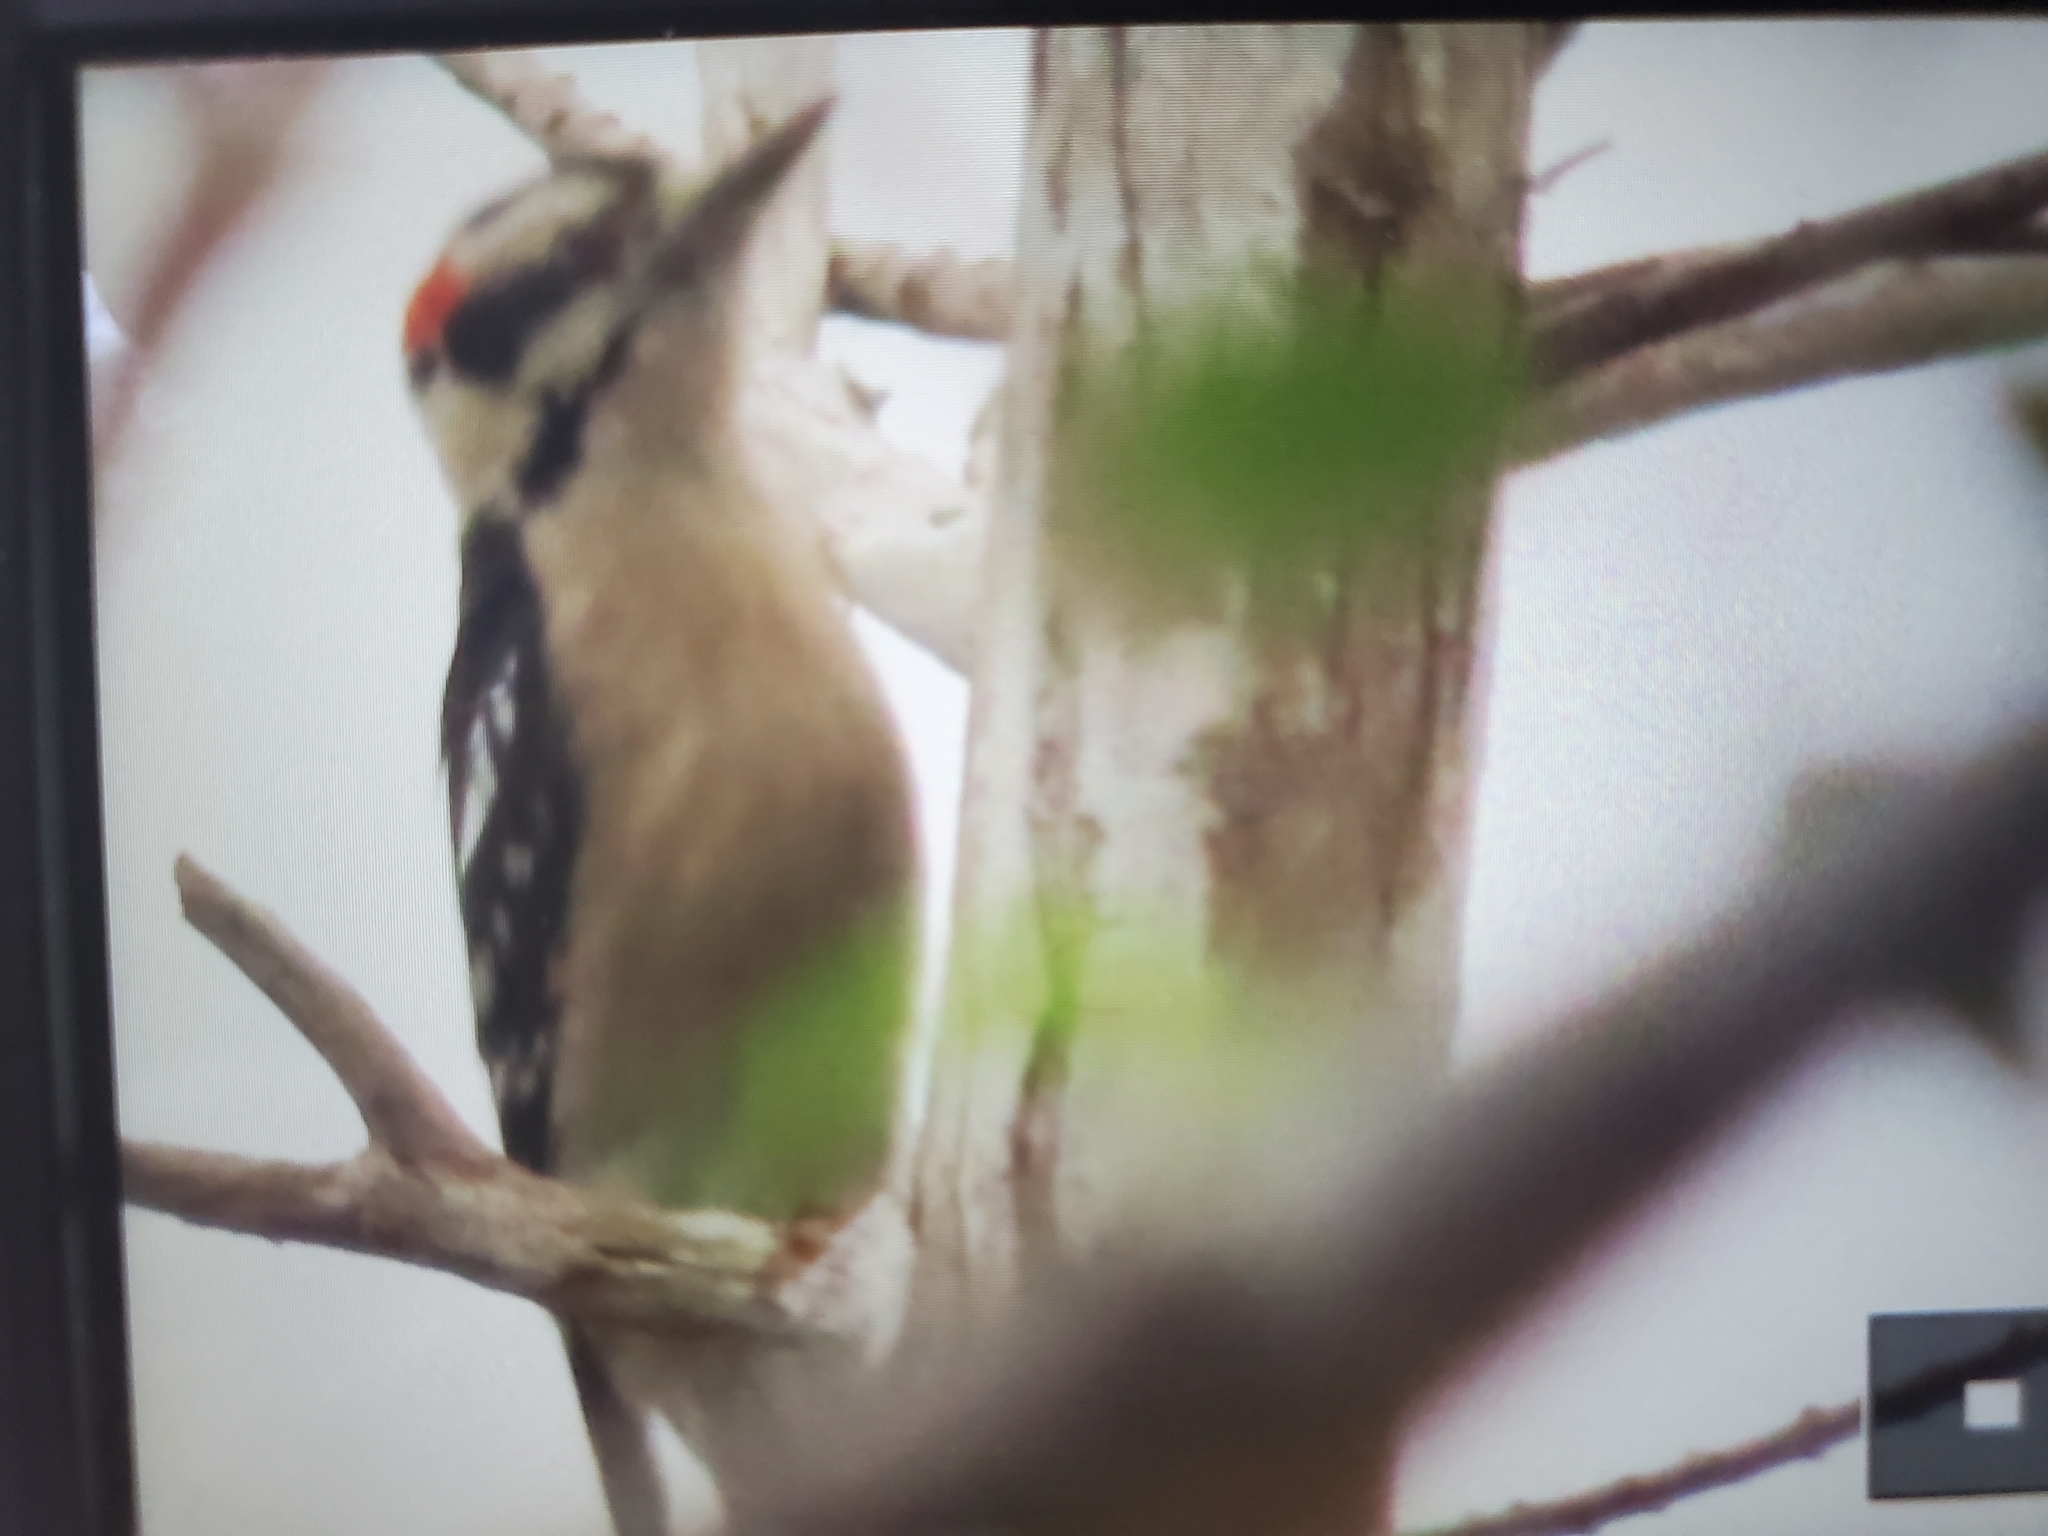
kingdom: Animalia
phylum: Chordata
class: Aves
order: Piciformes
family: Picidae
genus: Dryobates
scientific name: Dryobates pubescens
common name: Downy woodpecker
